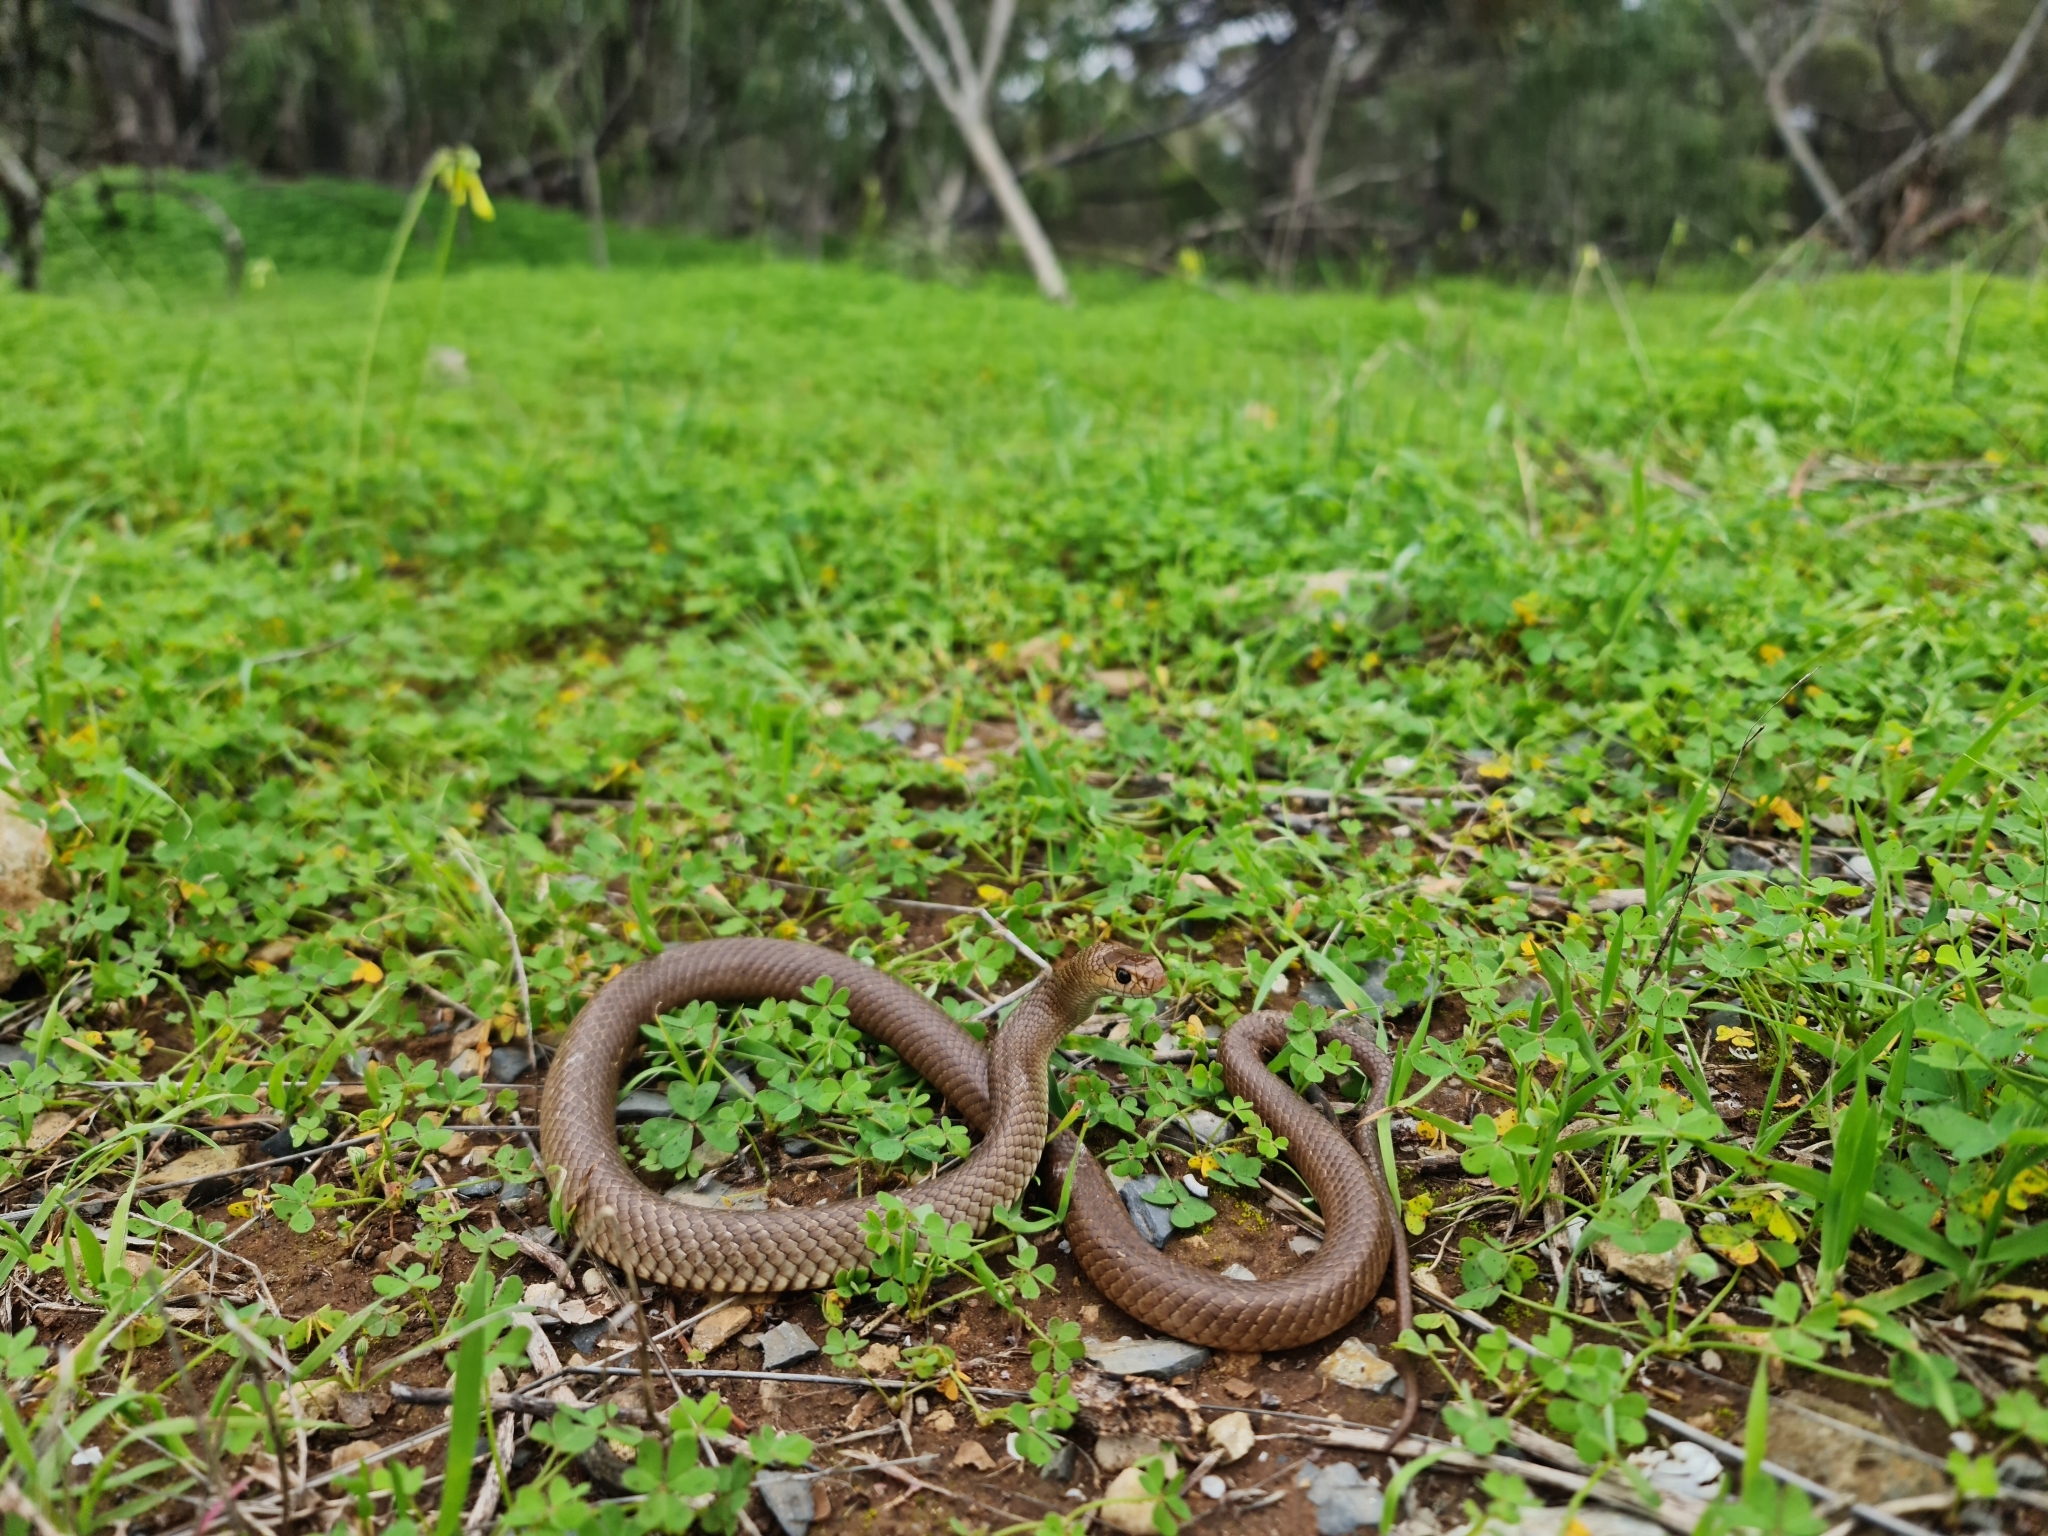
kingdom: Animalia
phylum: Chordata
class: Squamata
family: Elapidae
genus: Pseudonaja
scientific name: Pseudonaja textilis
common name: Eastern brown snake
